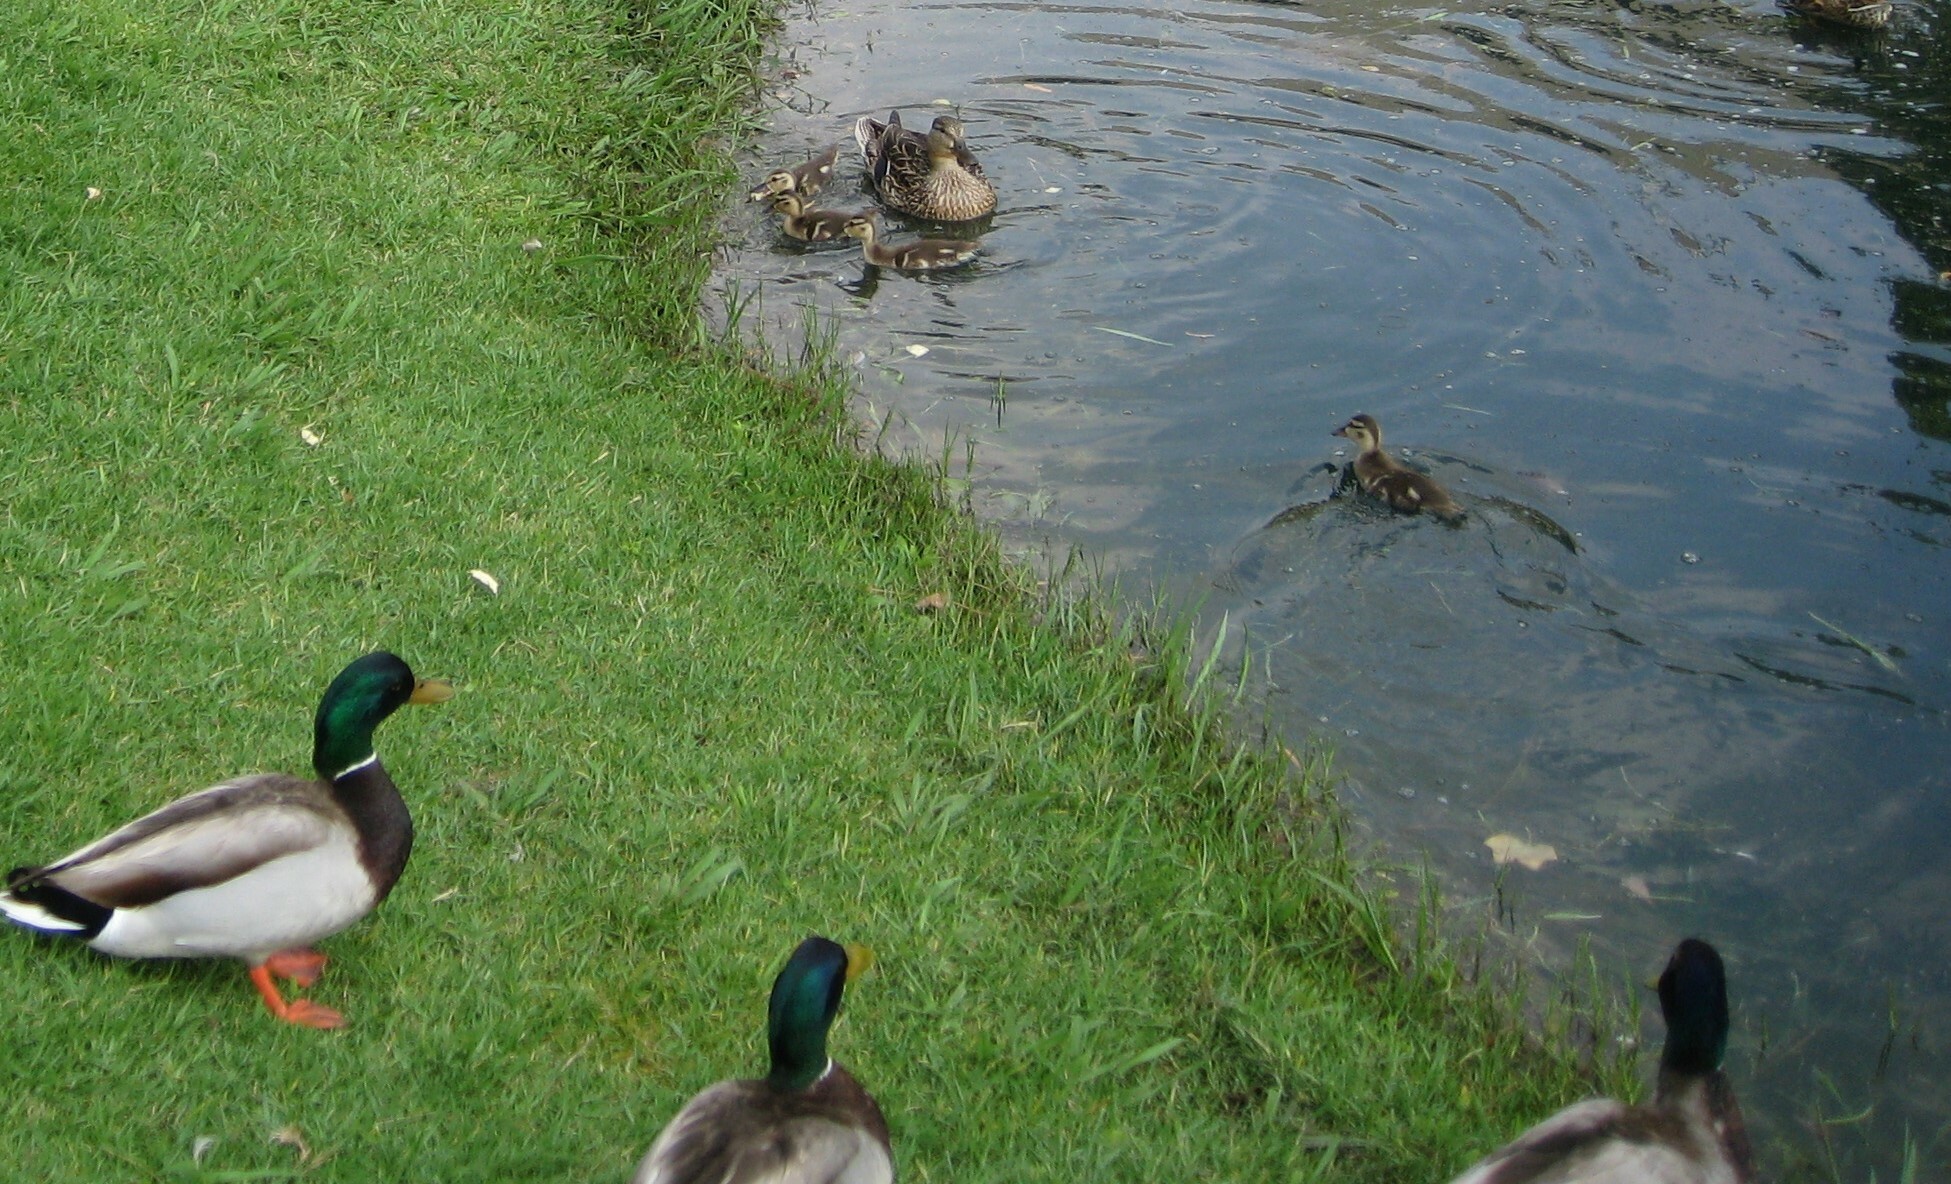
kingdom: Animalia
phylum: Chordata
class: Aves
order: Anseriformes
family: Anatidae
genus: Anas
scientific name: Anas platyrhynchos
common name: Mallard
